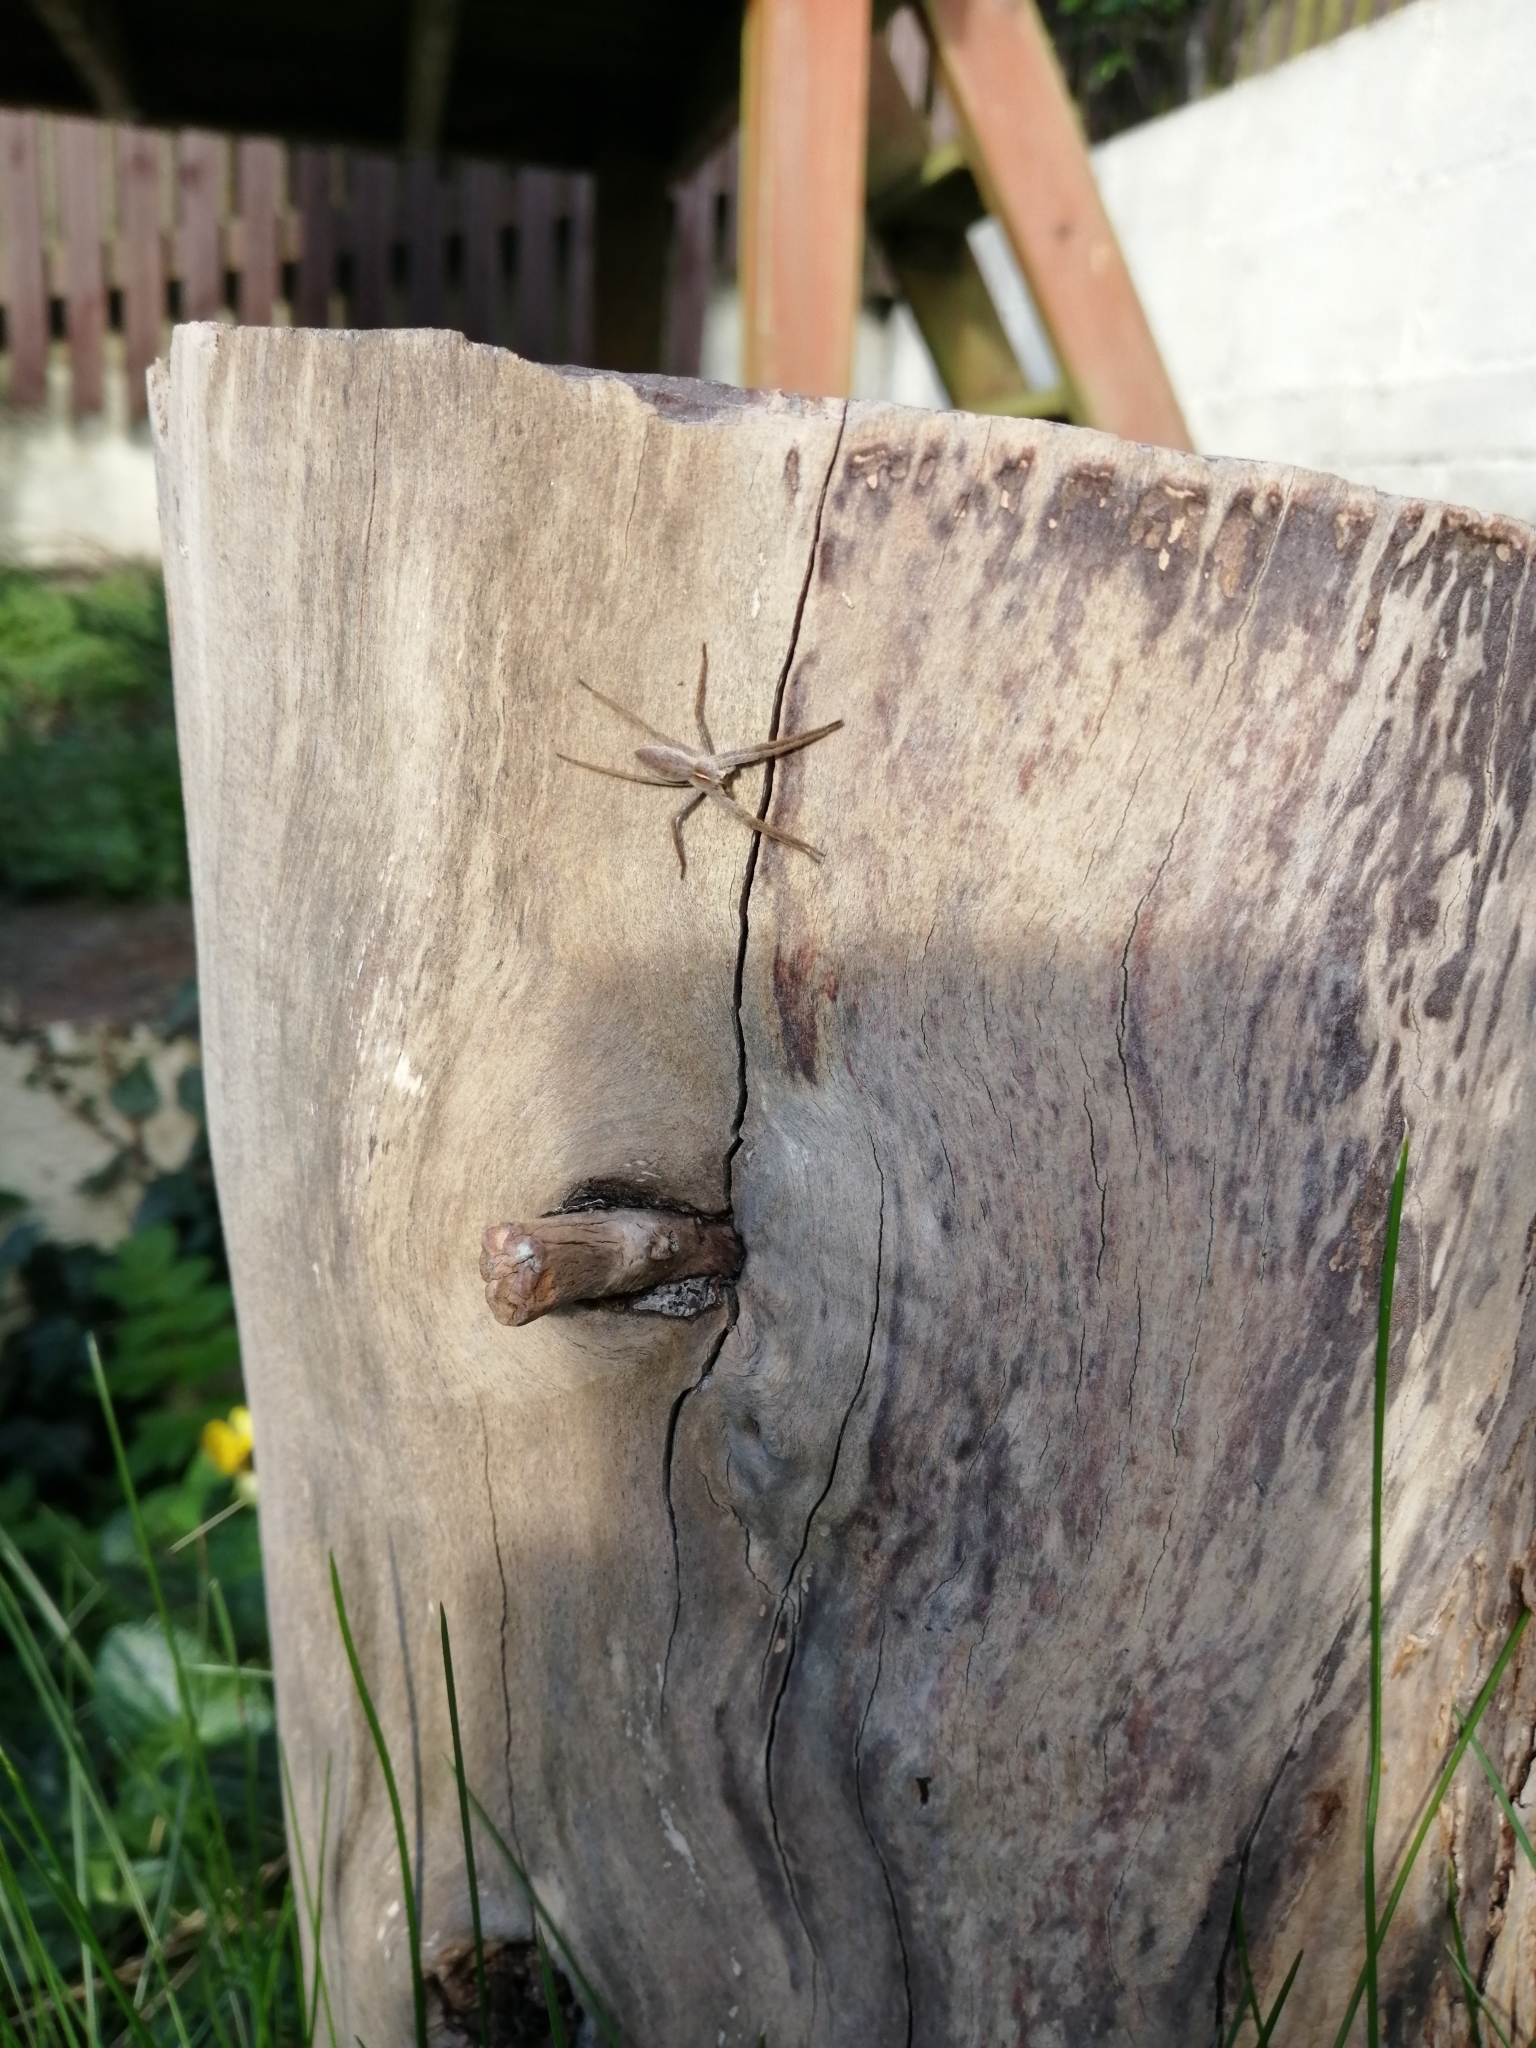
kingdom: Animalia
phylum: Arthropoda
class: Arachnida
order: Araneae
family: Pisauridae
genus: Pisaura
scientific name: Pisaura mirabilis
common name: Tent spider
